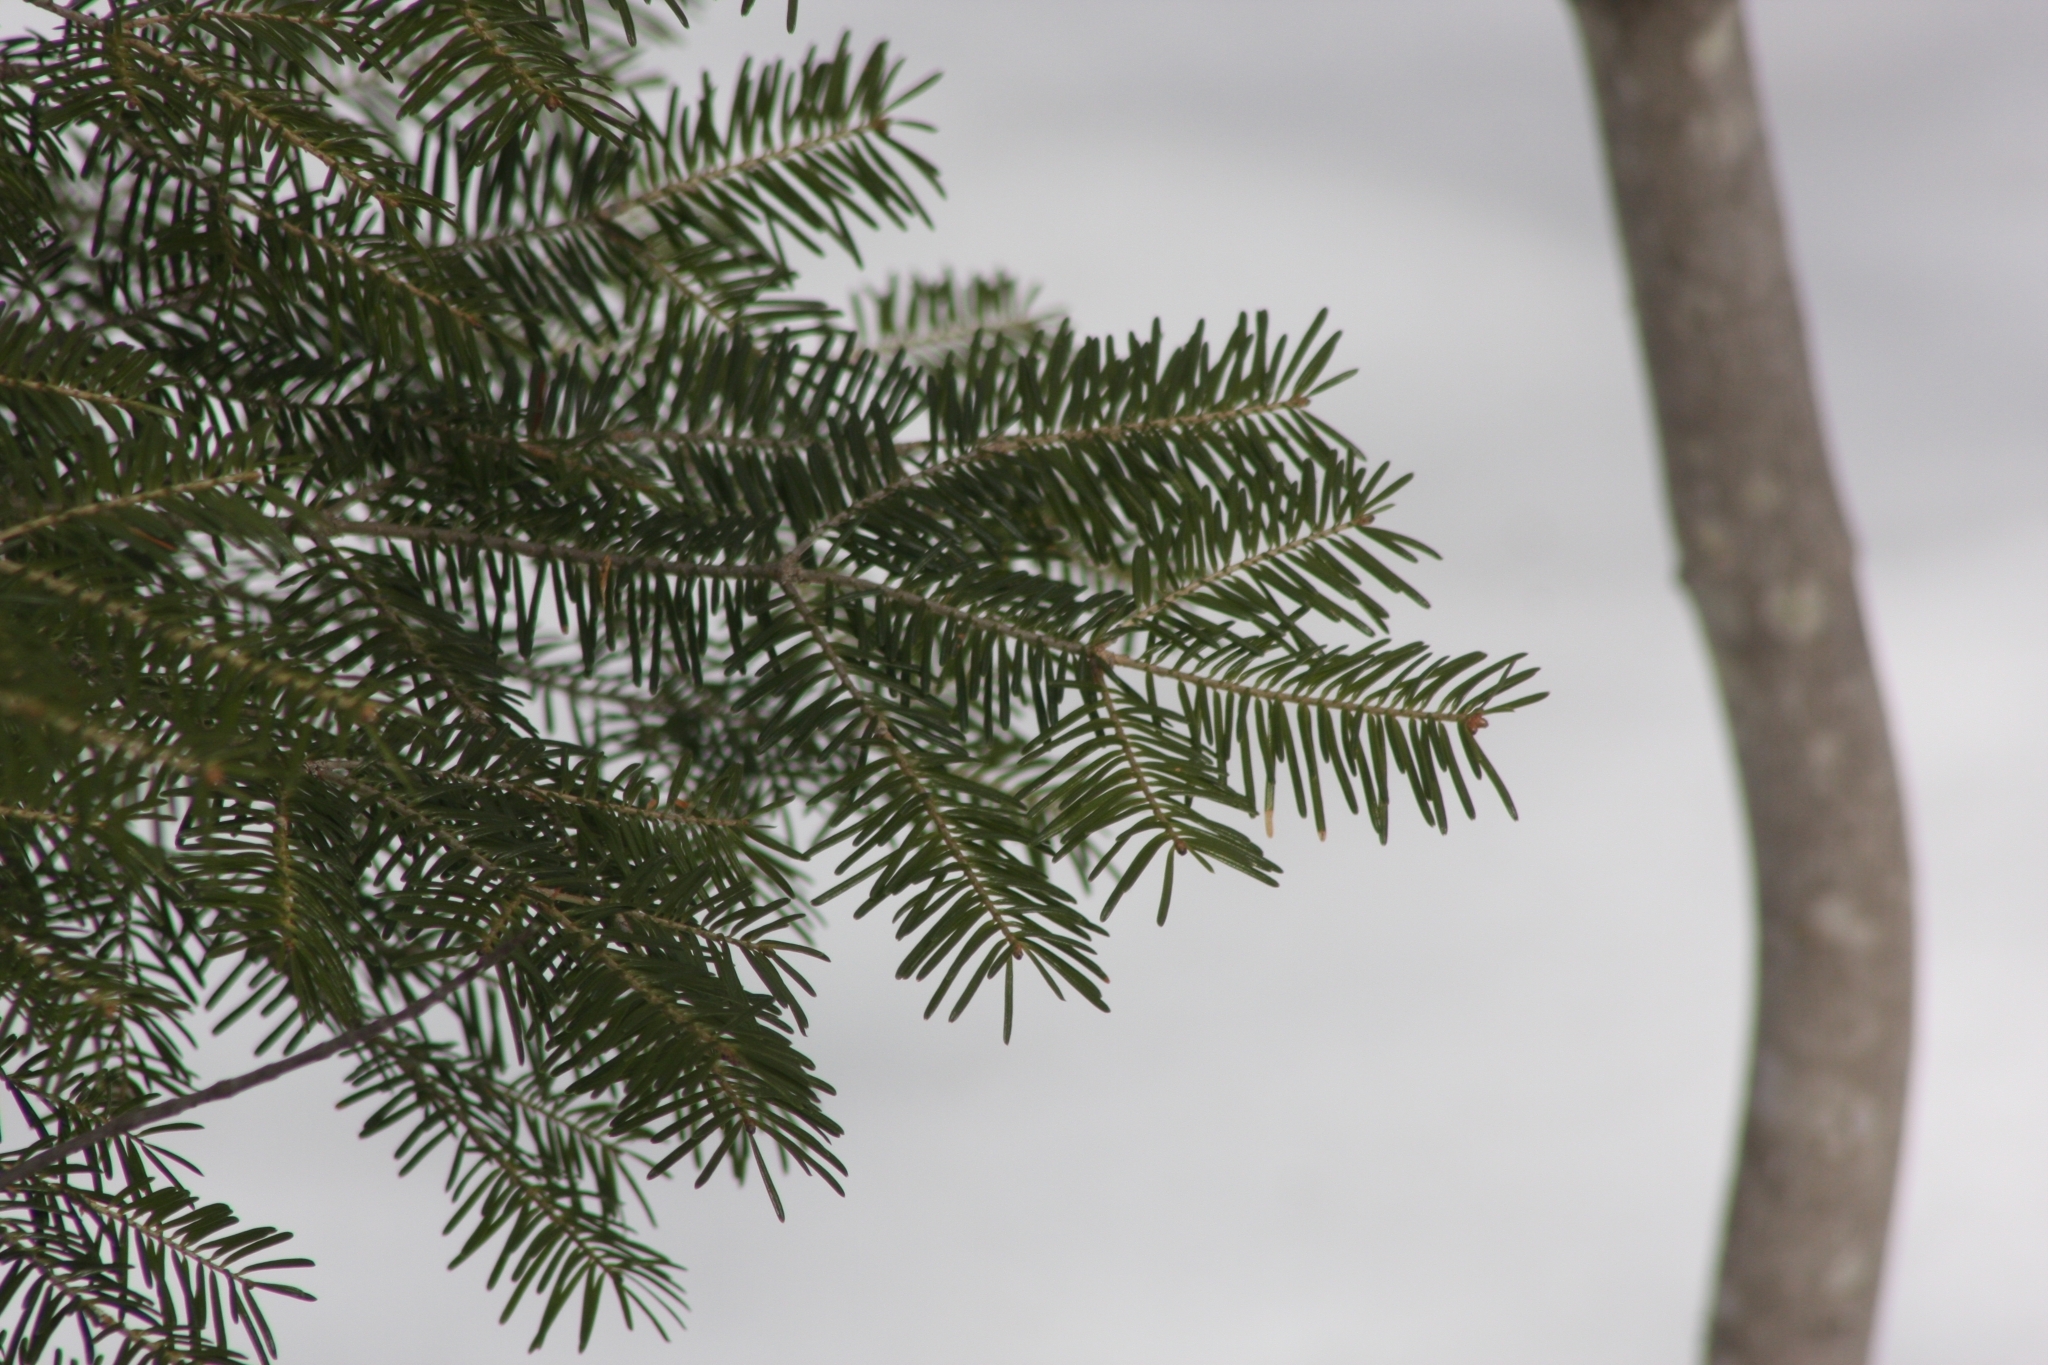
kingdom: Plantae
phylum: Tracheophyta
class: Pinopsida
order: Pinales
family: Pinaceae
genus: Abies
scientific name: Abies balsamea
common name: Balsam fir
